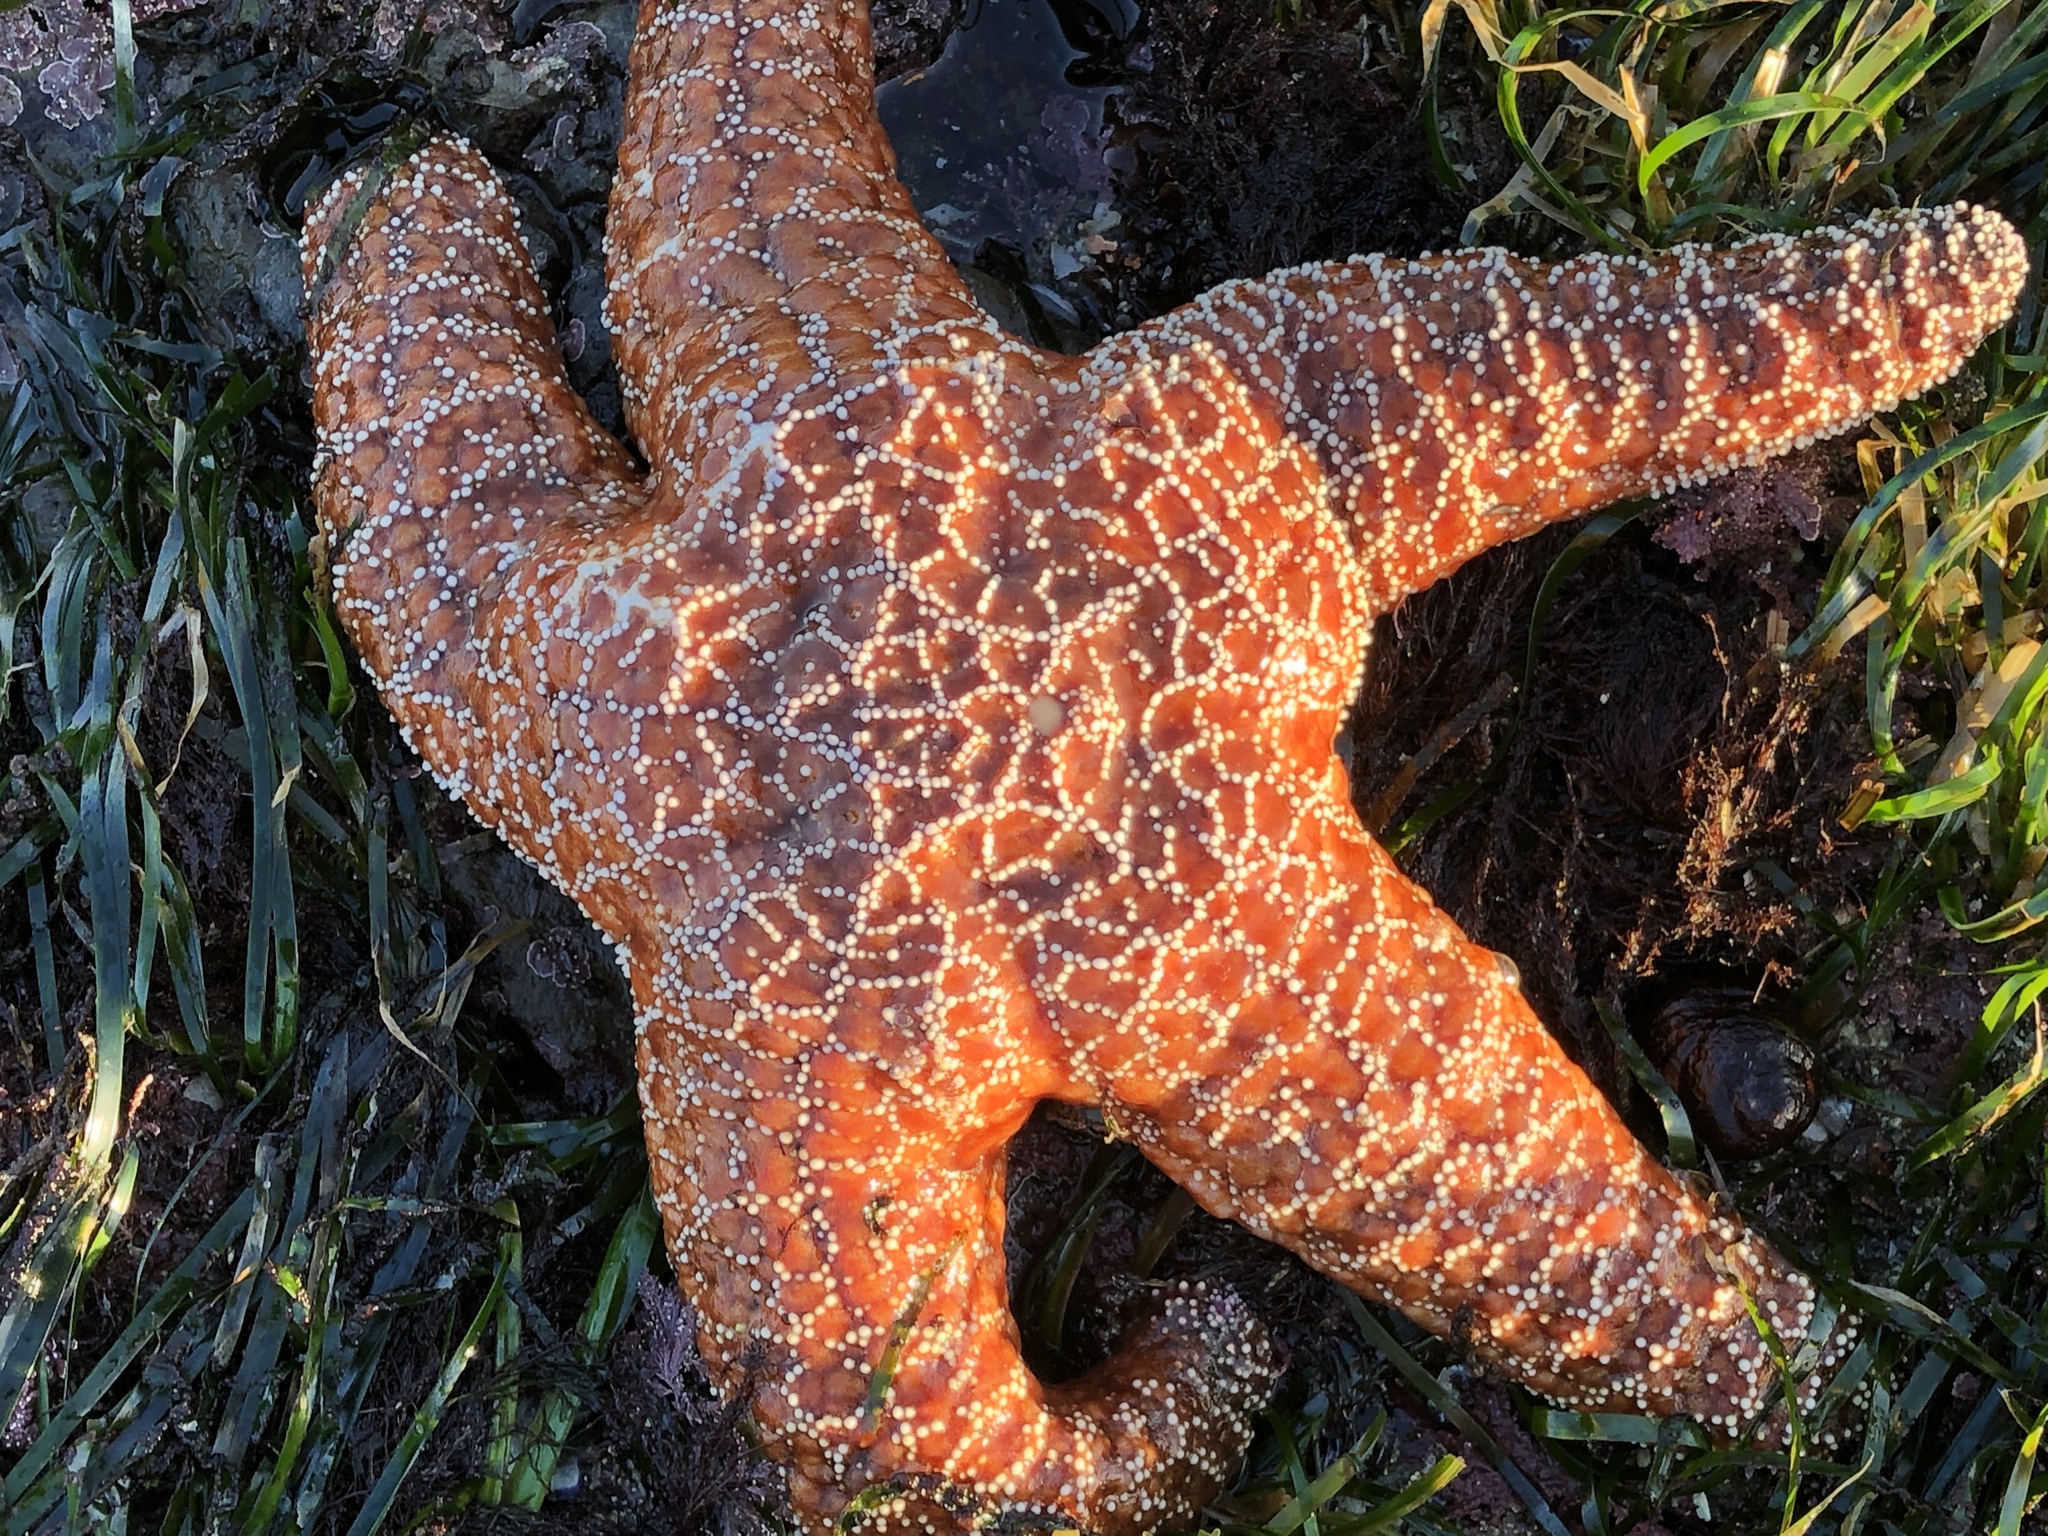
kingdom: Animalia
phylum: Echinodermata
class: Asteroidea
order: Forcipulatida
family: Asteriidae
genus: Pisaster
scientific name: Pisaster ochraceus
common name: Ochre stars
